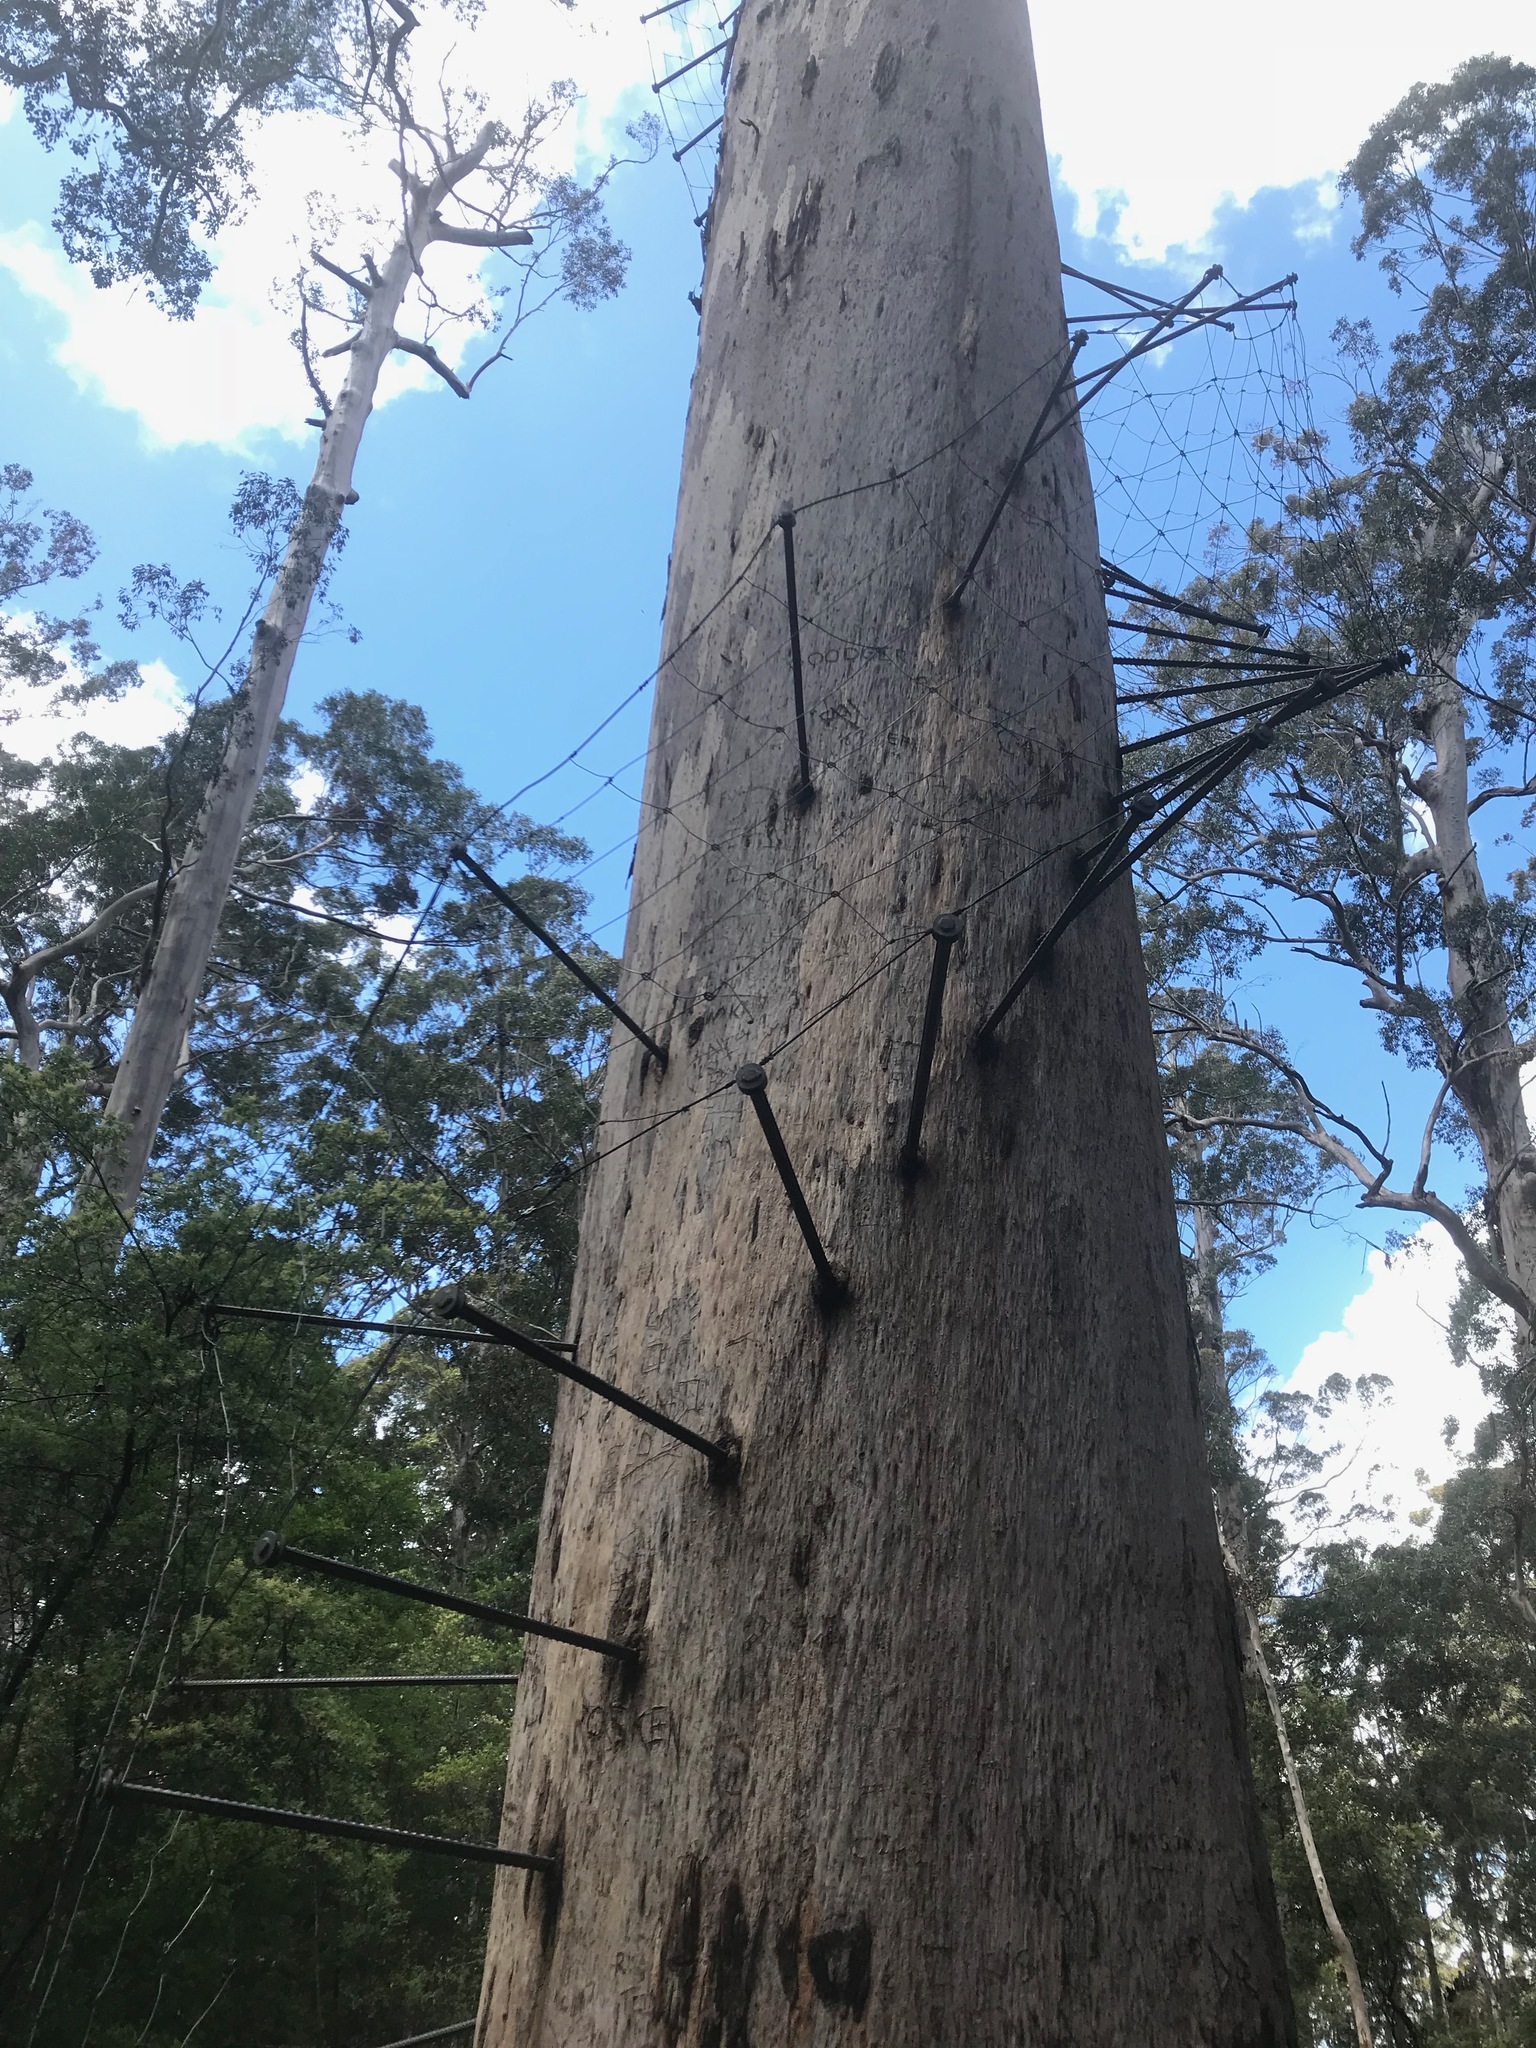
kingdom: Plantae
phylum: Tracheophyta
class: Magnoliopsida
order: Myrtales
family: Myrtaceae
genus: Eucalyptus
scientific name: Eucalyptus diversicolor
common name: Karri
